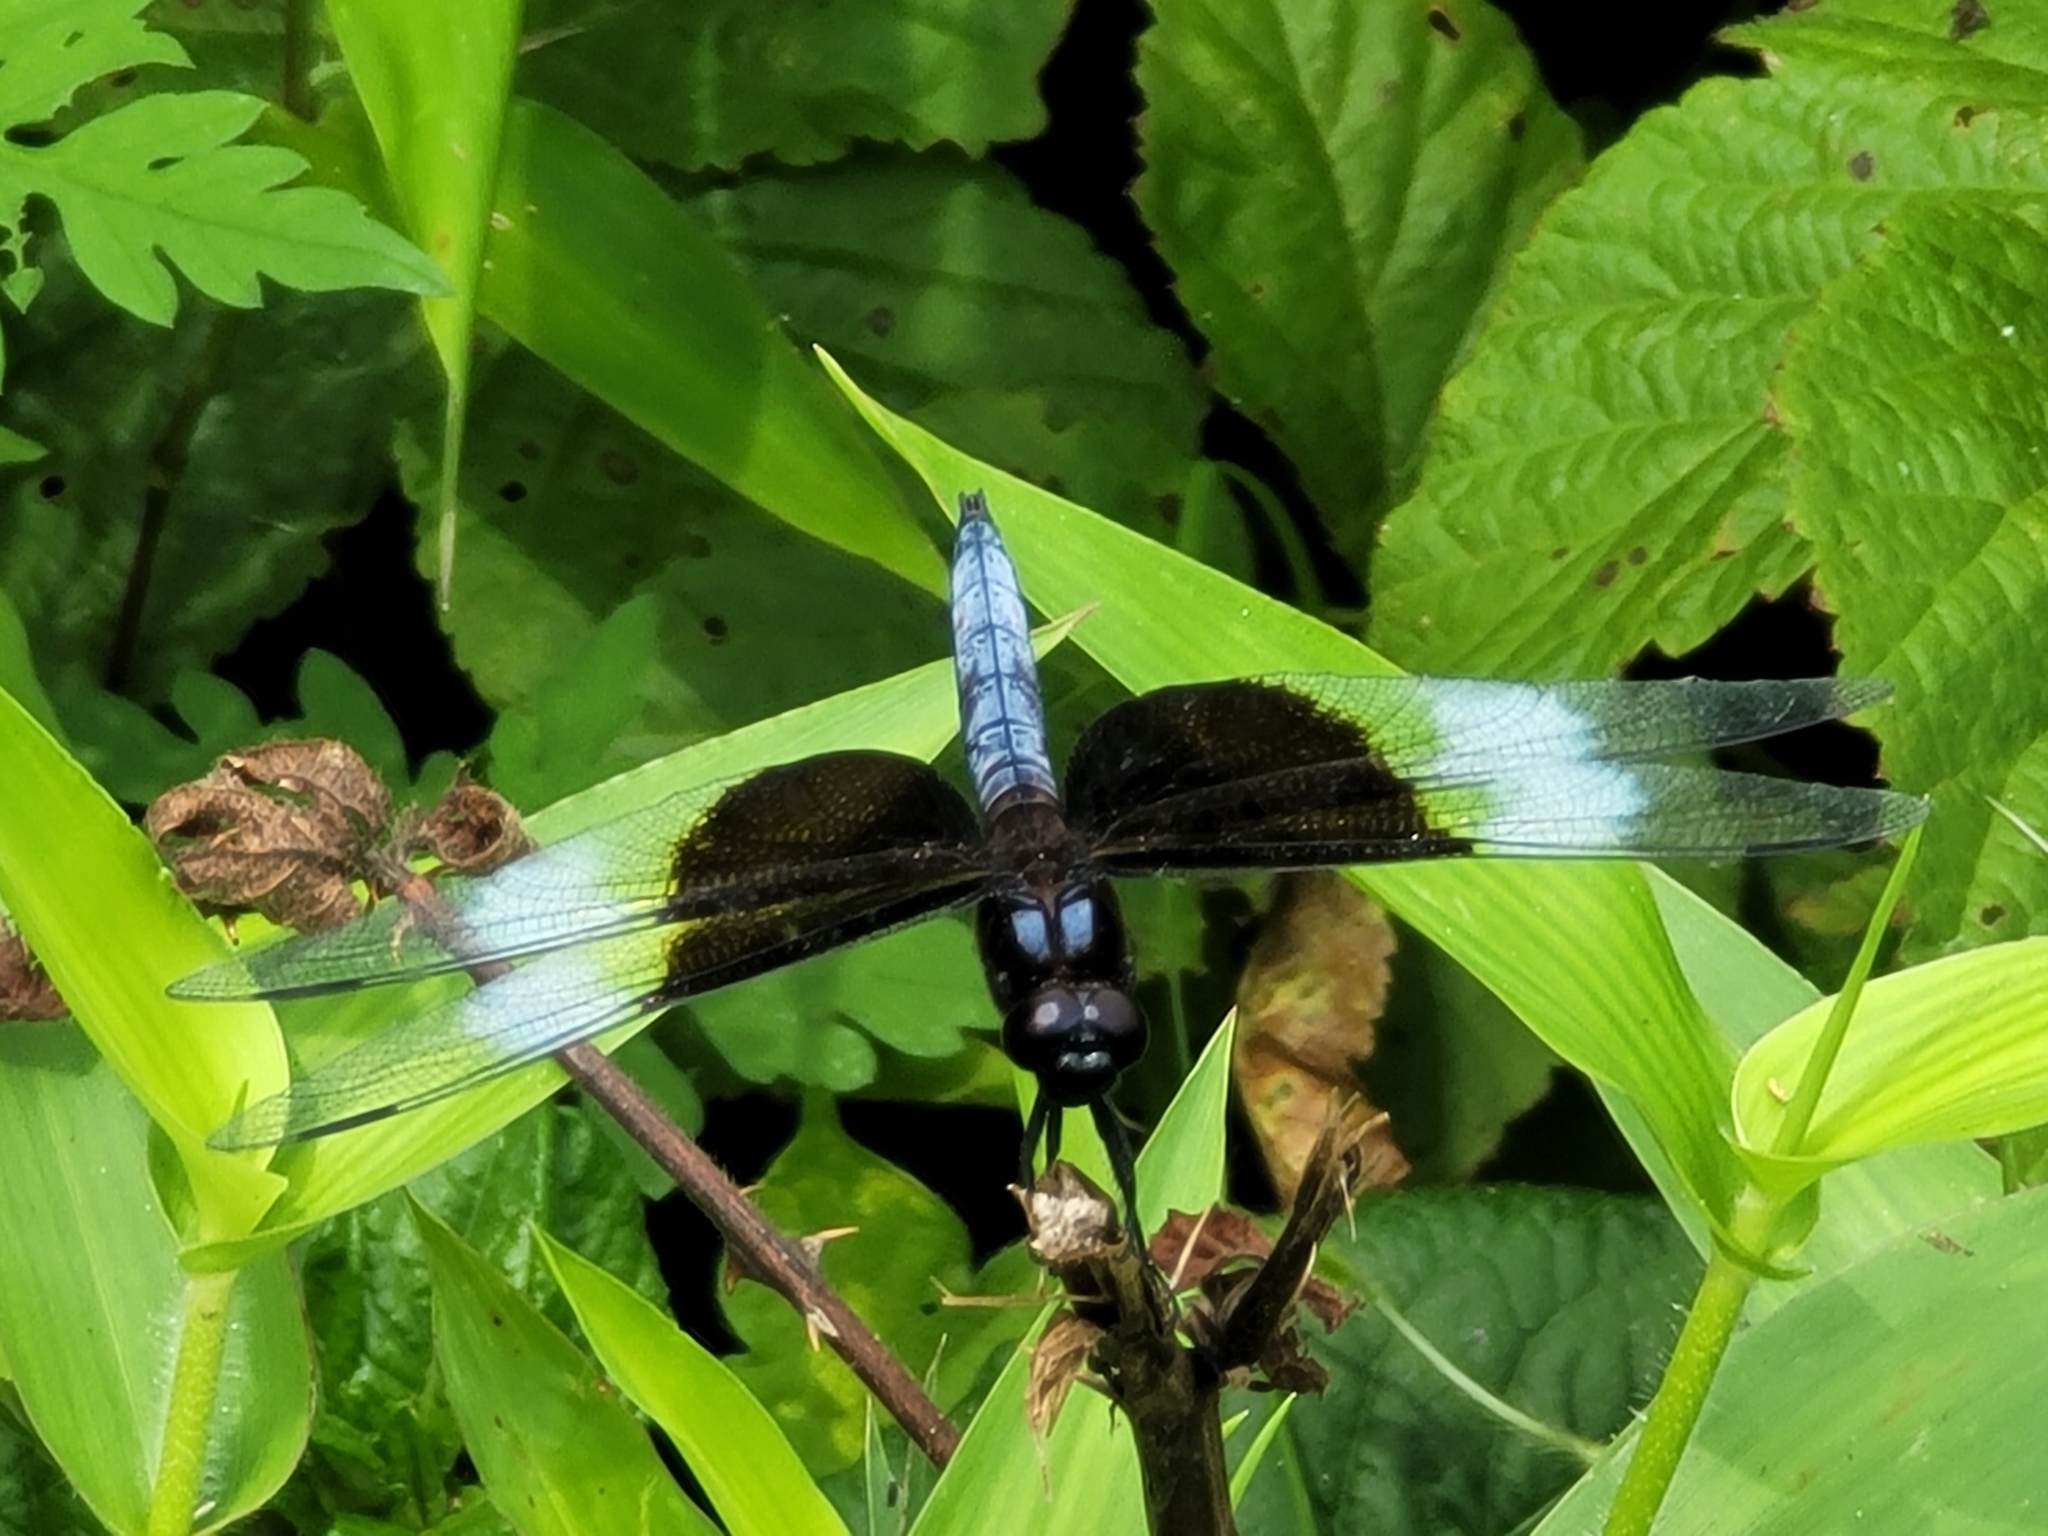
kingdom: Animalia
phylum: Arthropoda
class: Insecta
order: Odonata
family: Libellulidae
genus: Libellula
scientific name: Libellula luctuosa
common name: Widow skimmer
